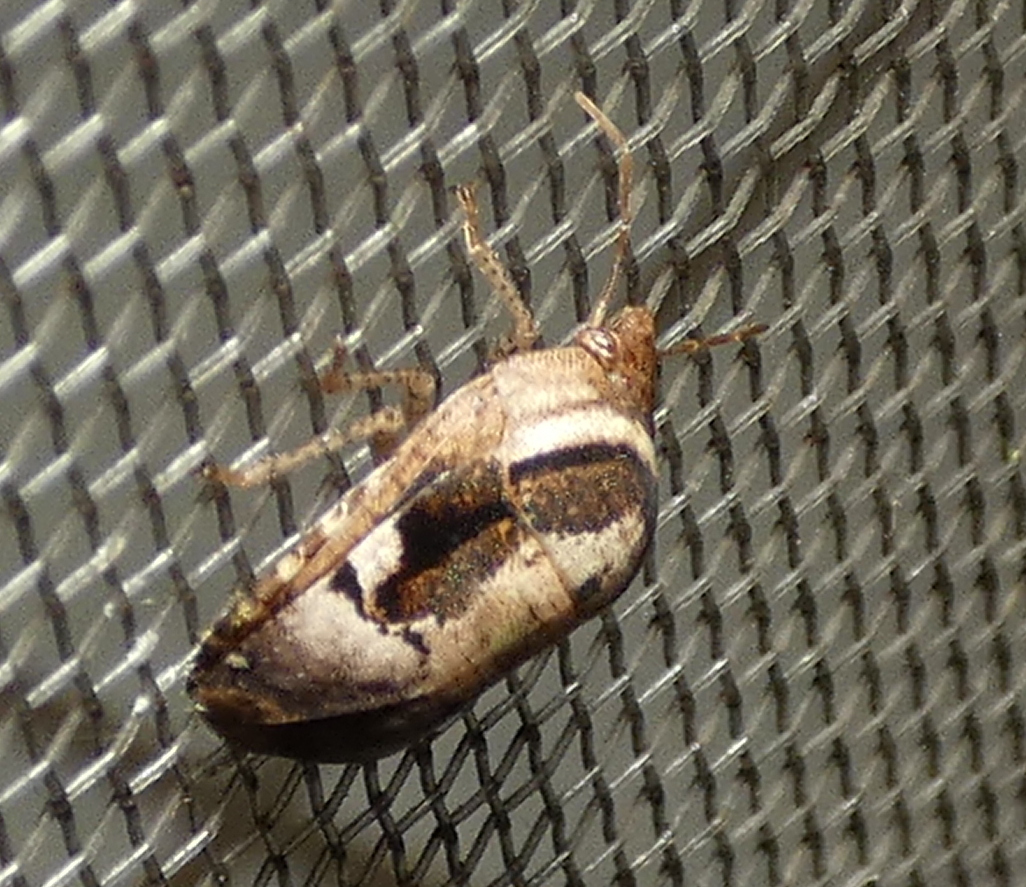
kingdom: Animalia
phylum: Arthropoda
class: Insecta
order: Hemiptera
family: Scutelleridae
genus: Symphylus
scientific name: Symphylus deplanatus
